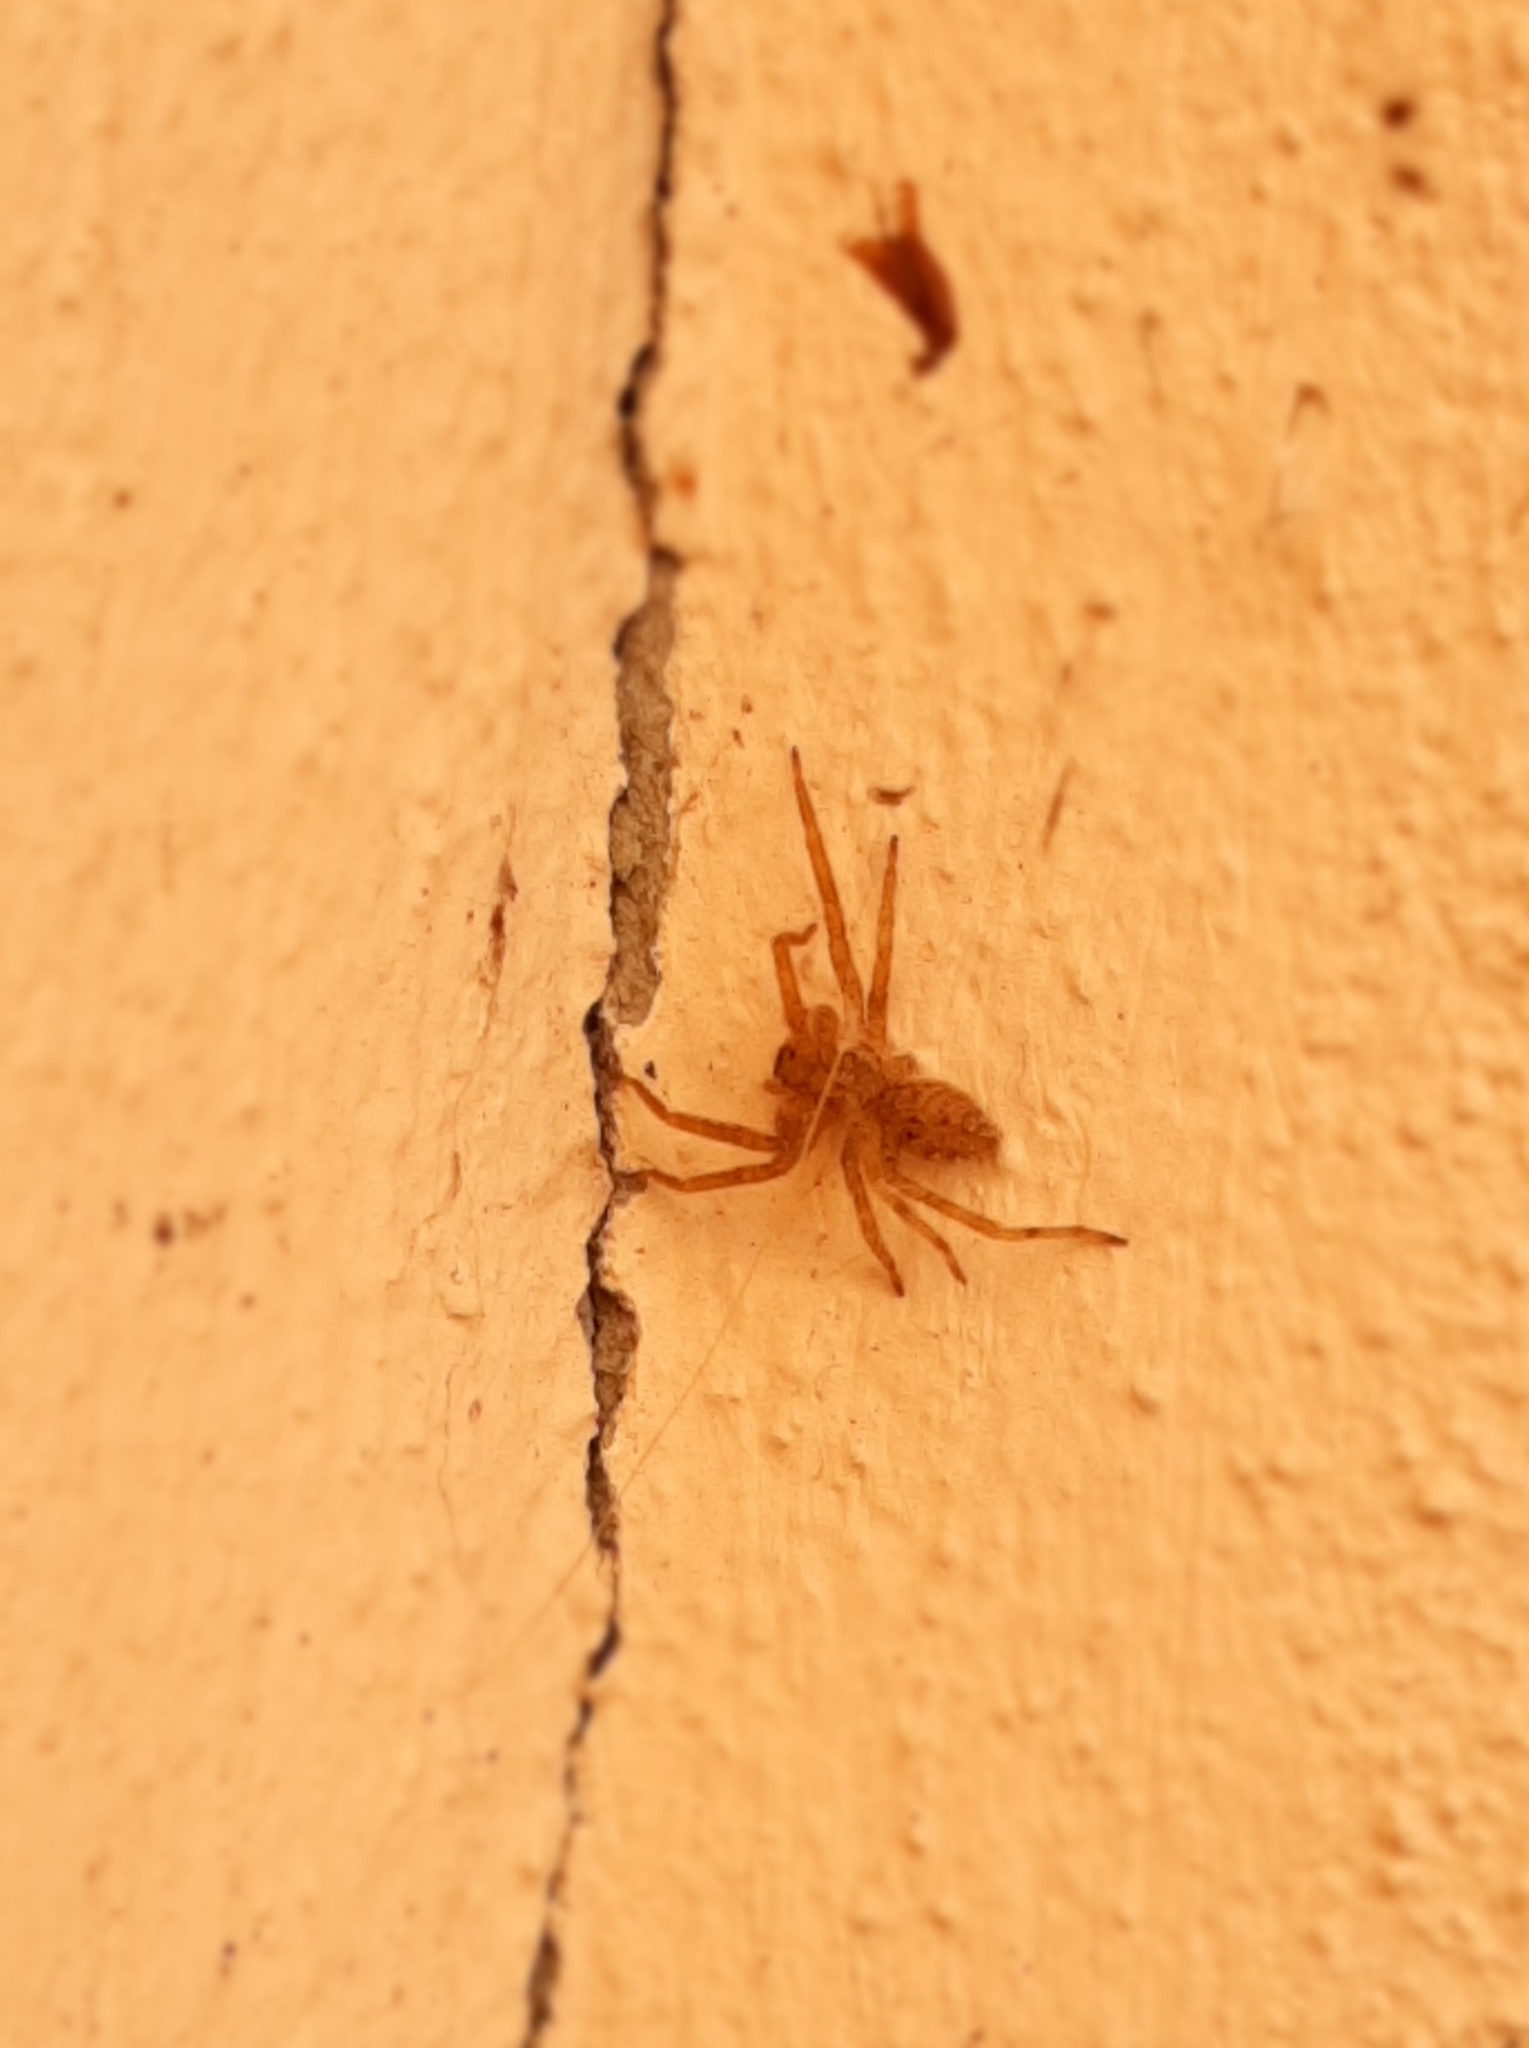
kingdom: Animalia
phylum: Arthropoda
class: Arachnida
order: Araneae
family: Zoropsidae
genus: Zoropsis
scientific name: Zoropsis spinimana
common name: Zoropsid spider
